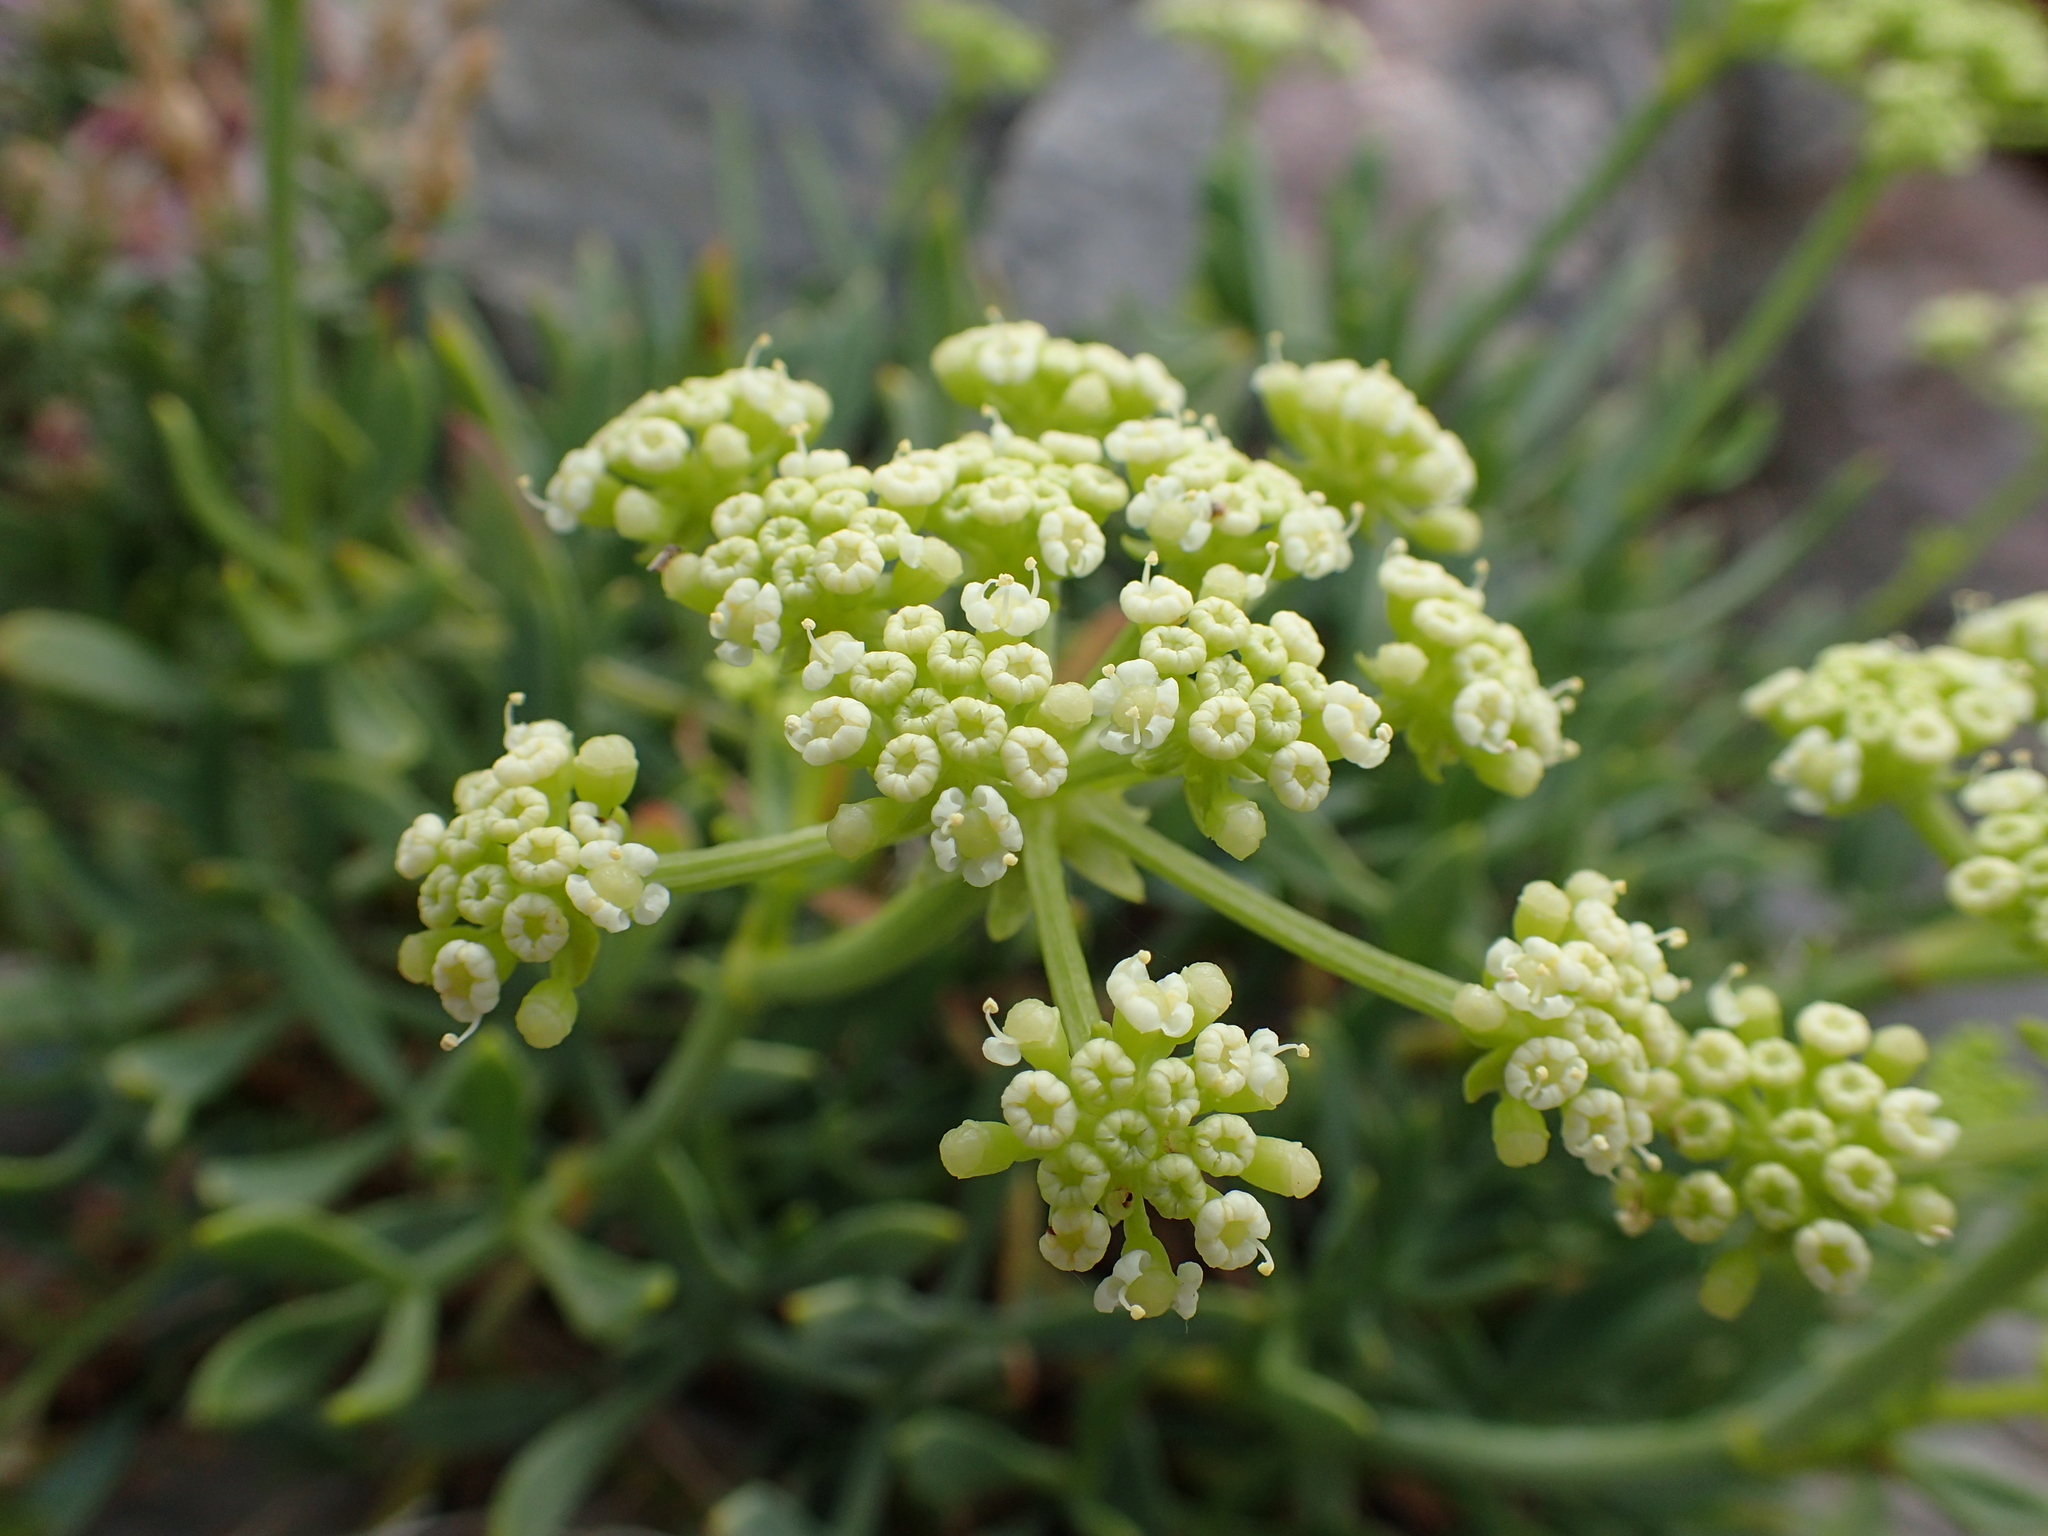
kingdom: Plantae
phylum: Tracheophyta
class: Magnoliopsida
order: Apiales
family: Apiaceae
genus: Crithmum
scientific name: Crithmum maritimum
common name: Rock samphire
